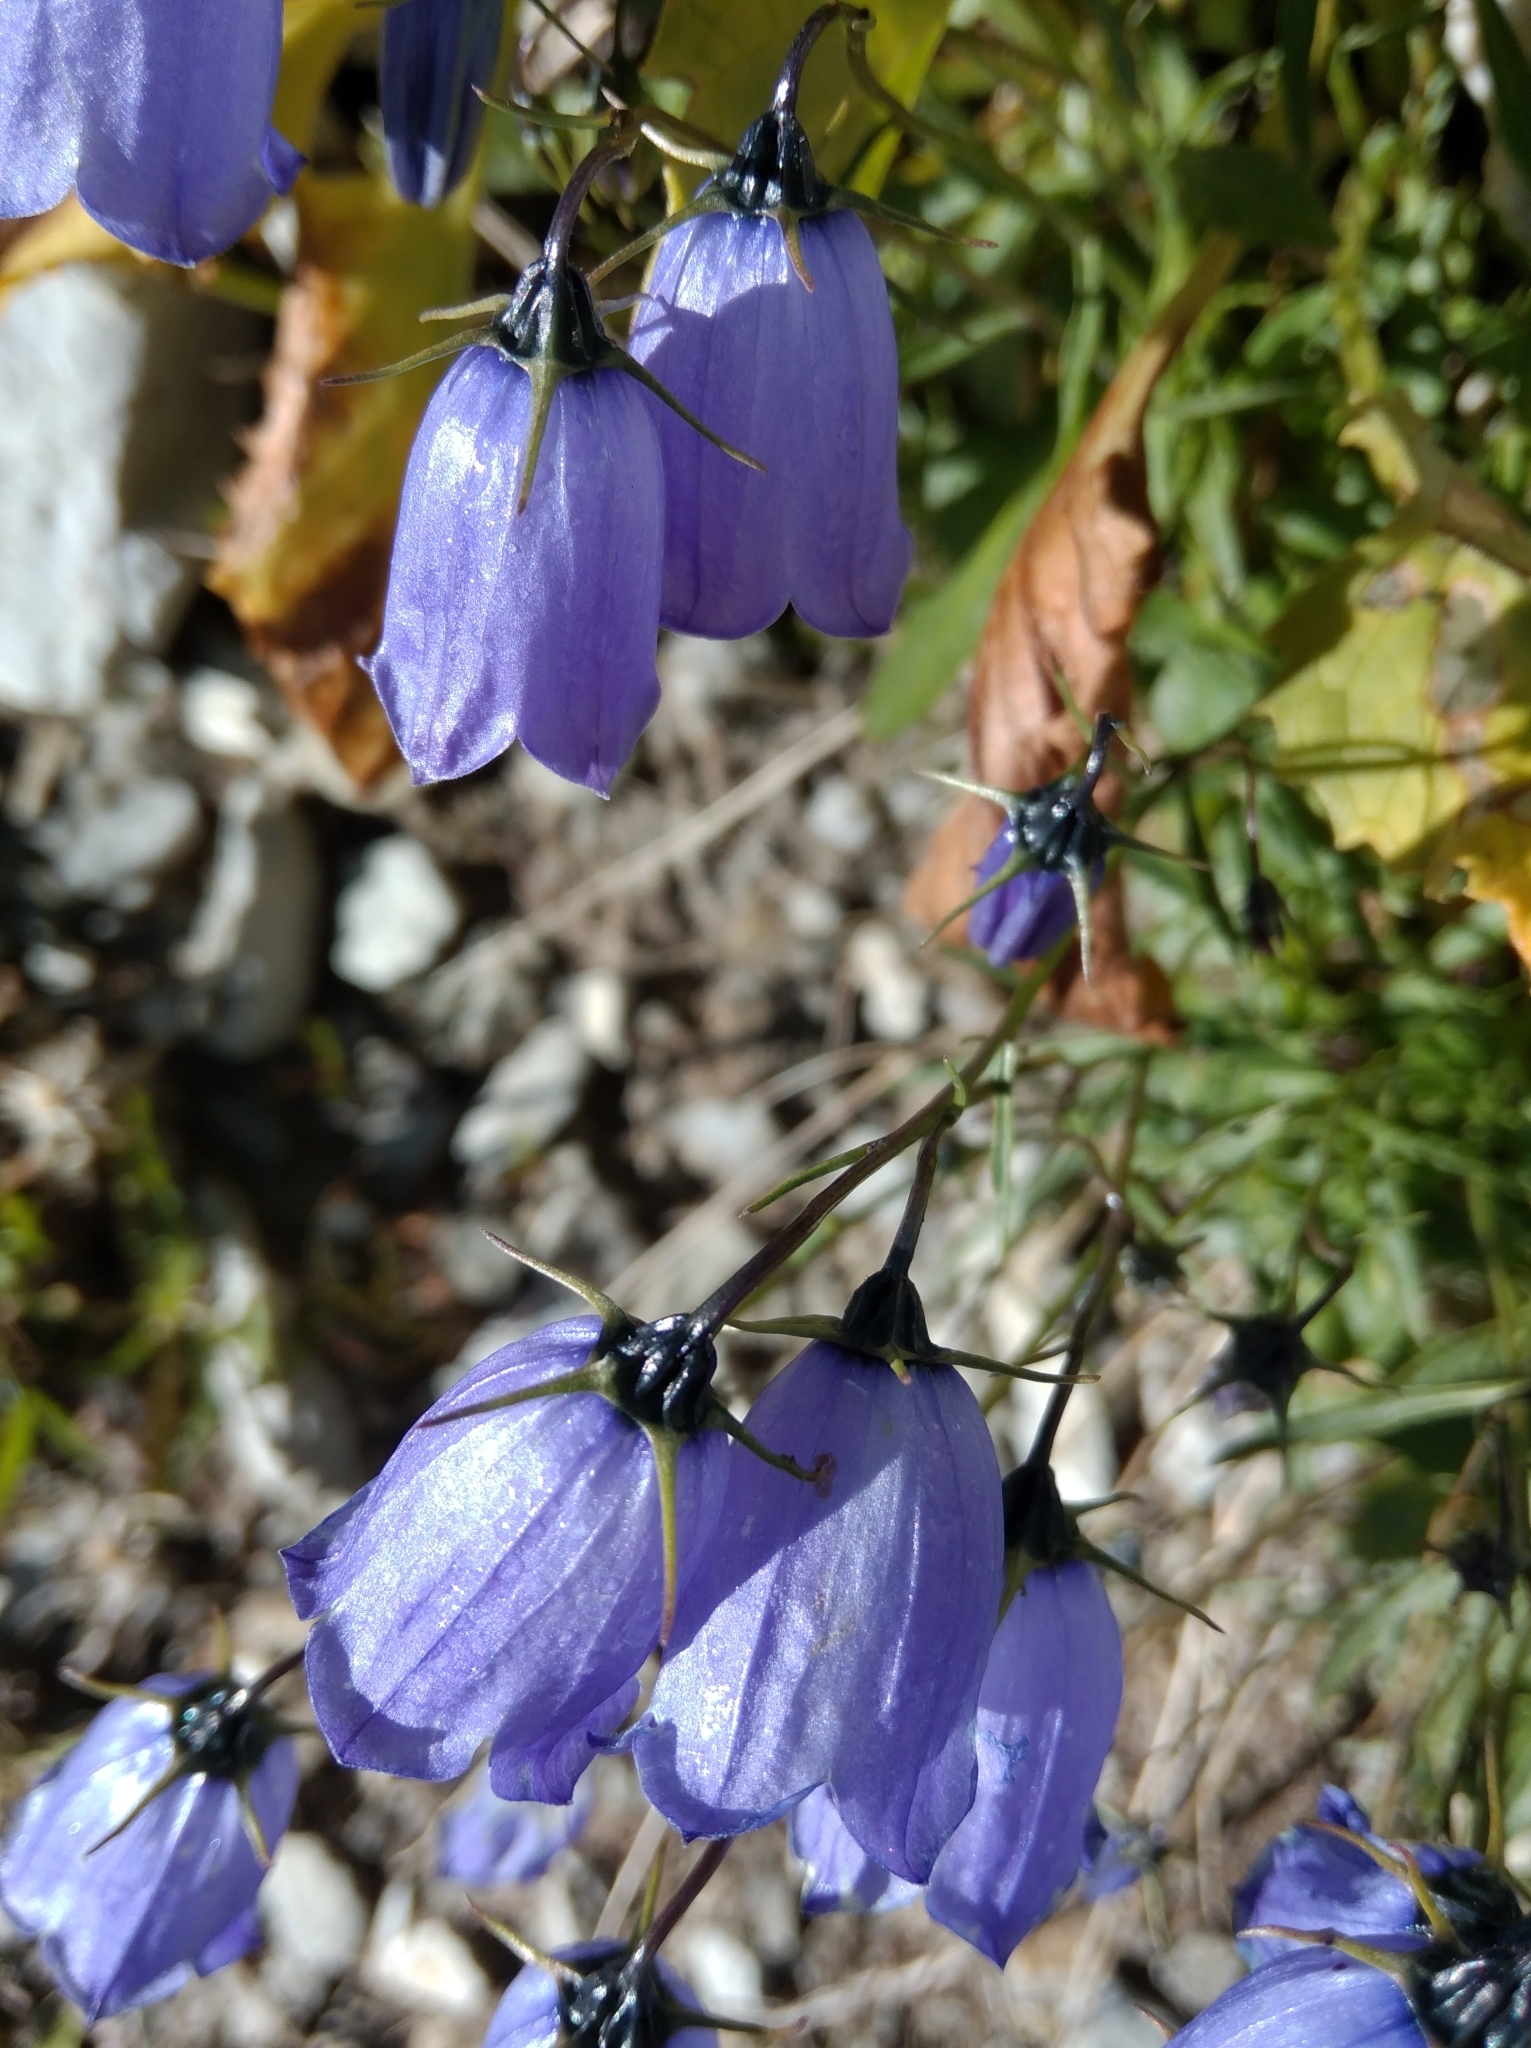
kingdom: Plantae
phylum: Tracheophyta
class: Magnoliopsida
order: Asterales
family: Campanulaceae
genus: Campanula
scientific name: Campanula cochleariifolia
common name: Fairies'-thimbles
